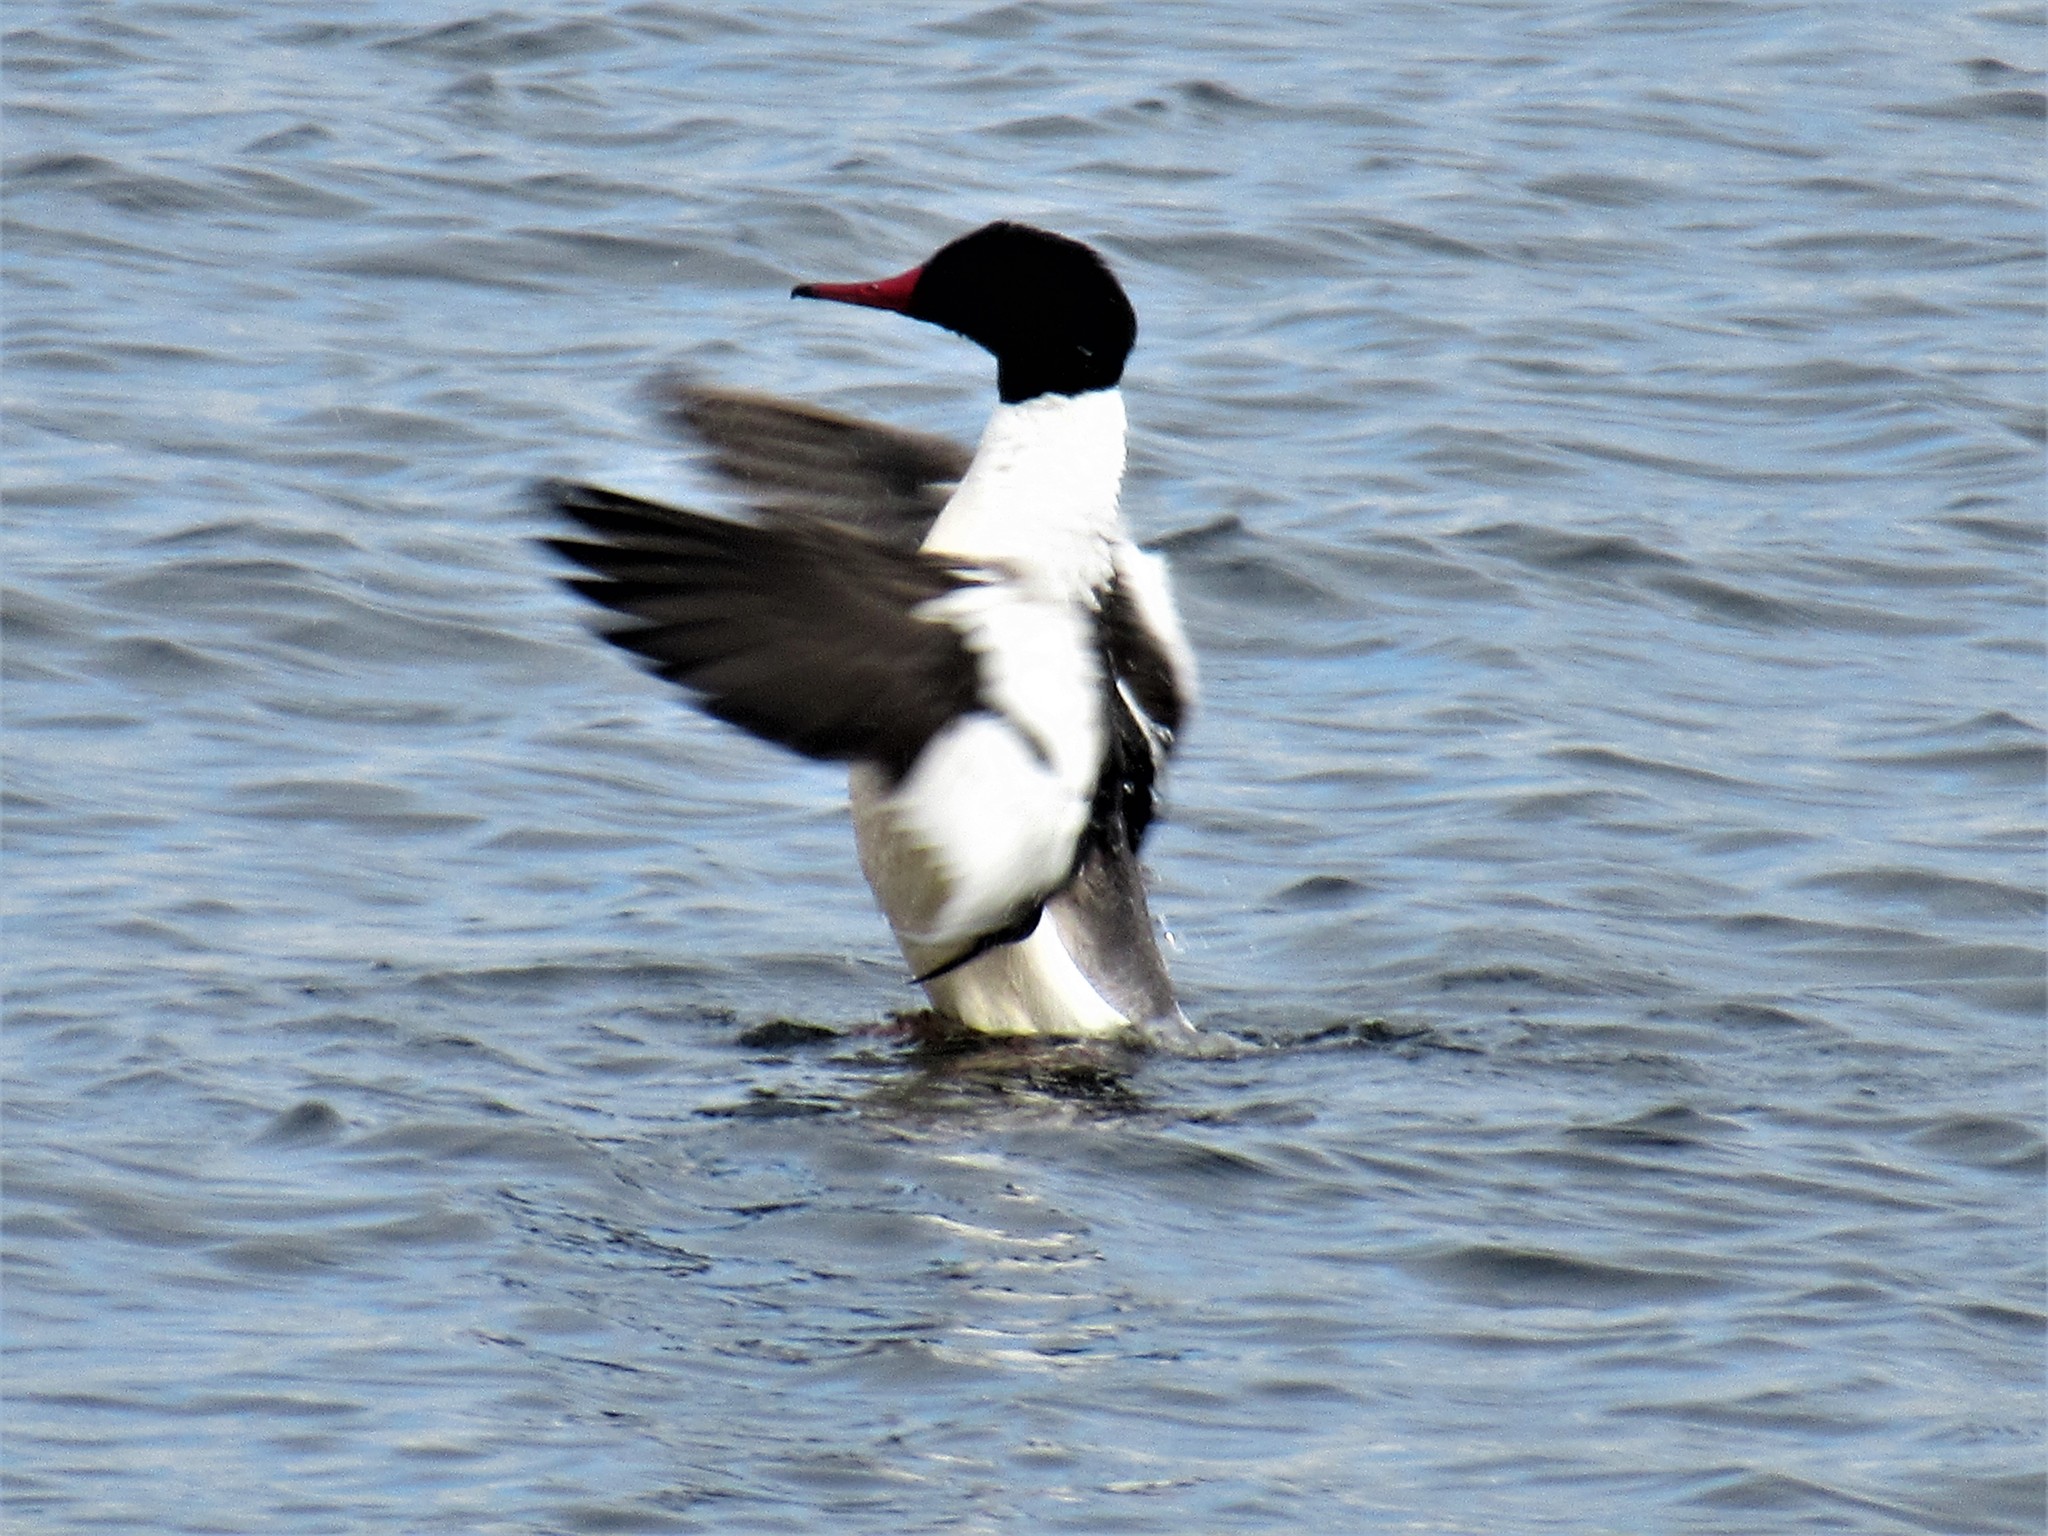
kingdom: Animalia
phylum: Chordata
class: Aves
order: Anseriformes
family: Anatidae
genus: Mergus
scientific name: Mergus merganser
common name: Common merganser
